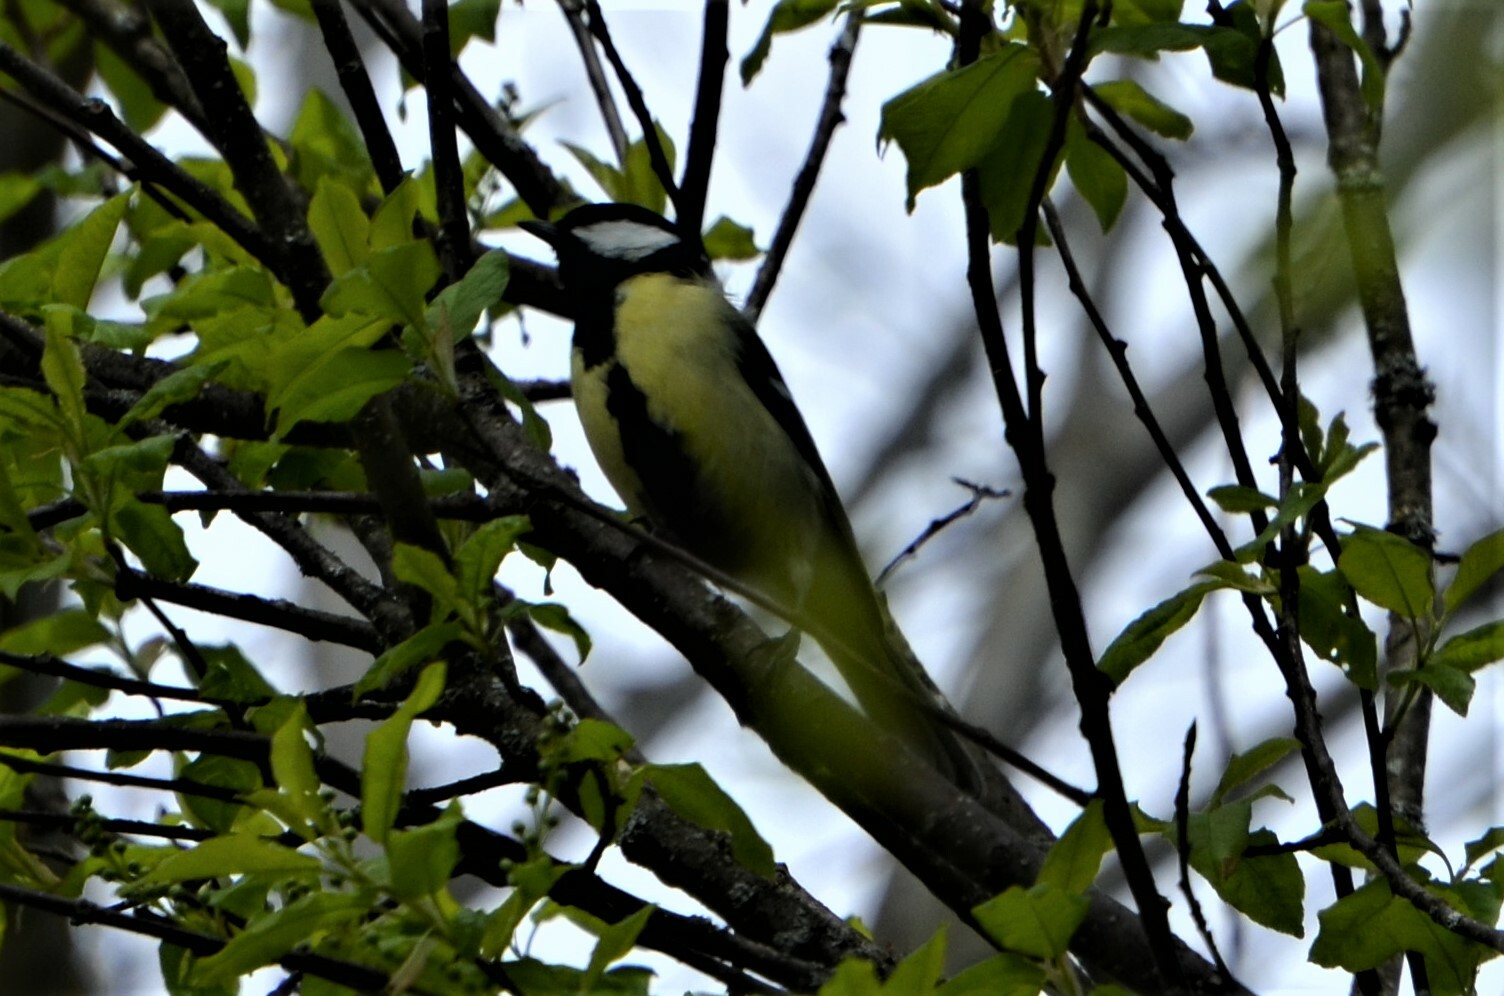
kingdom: Animalia
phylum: Chordata
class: Aves
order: Passeriformes
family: Paridae
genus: Parus
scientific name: Parus major
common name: Great tit
